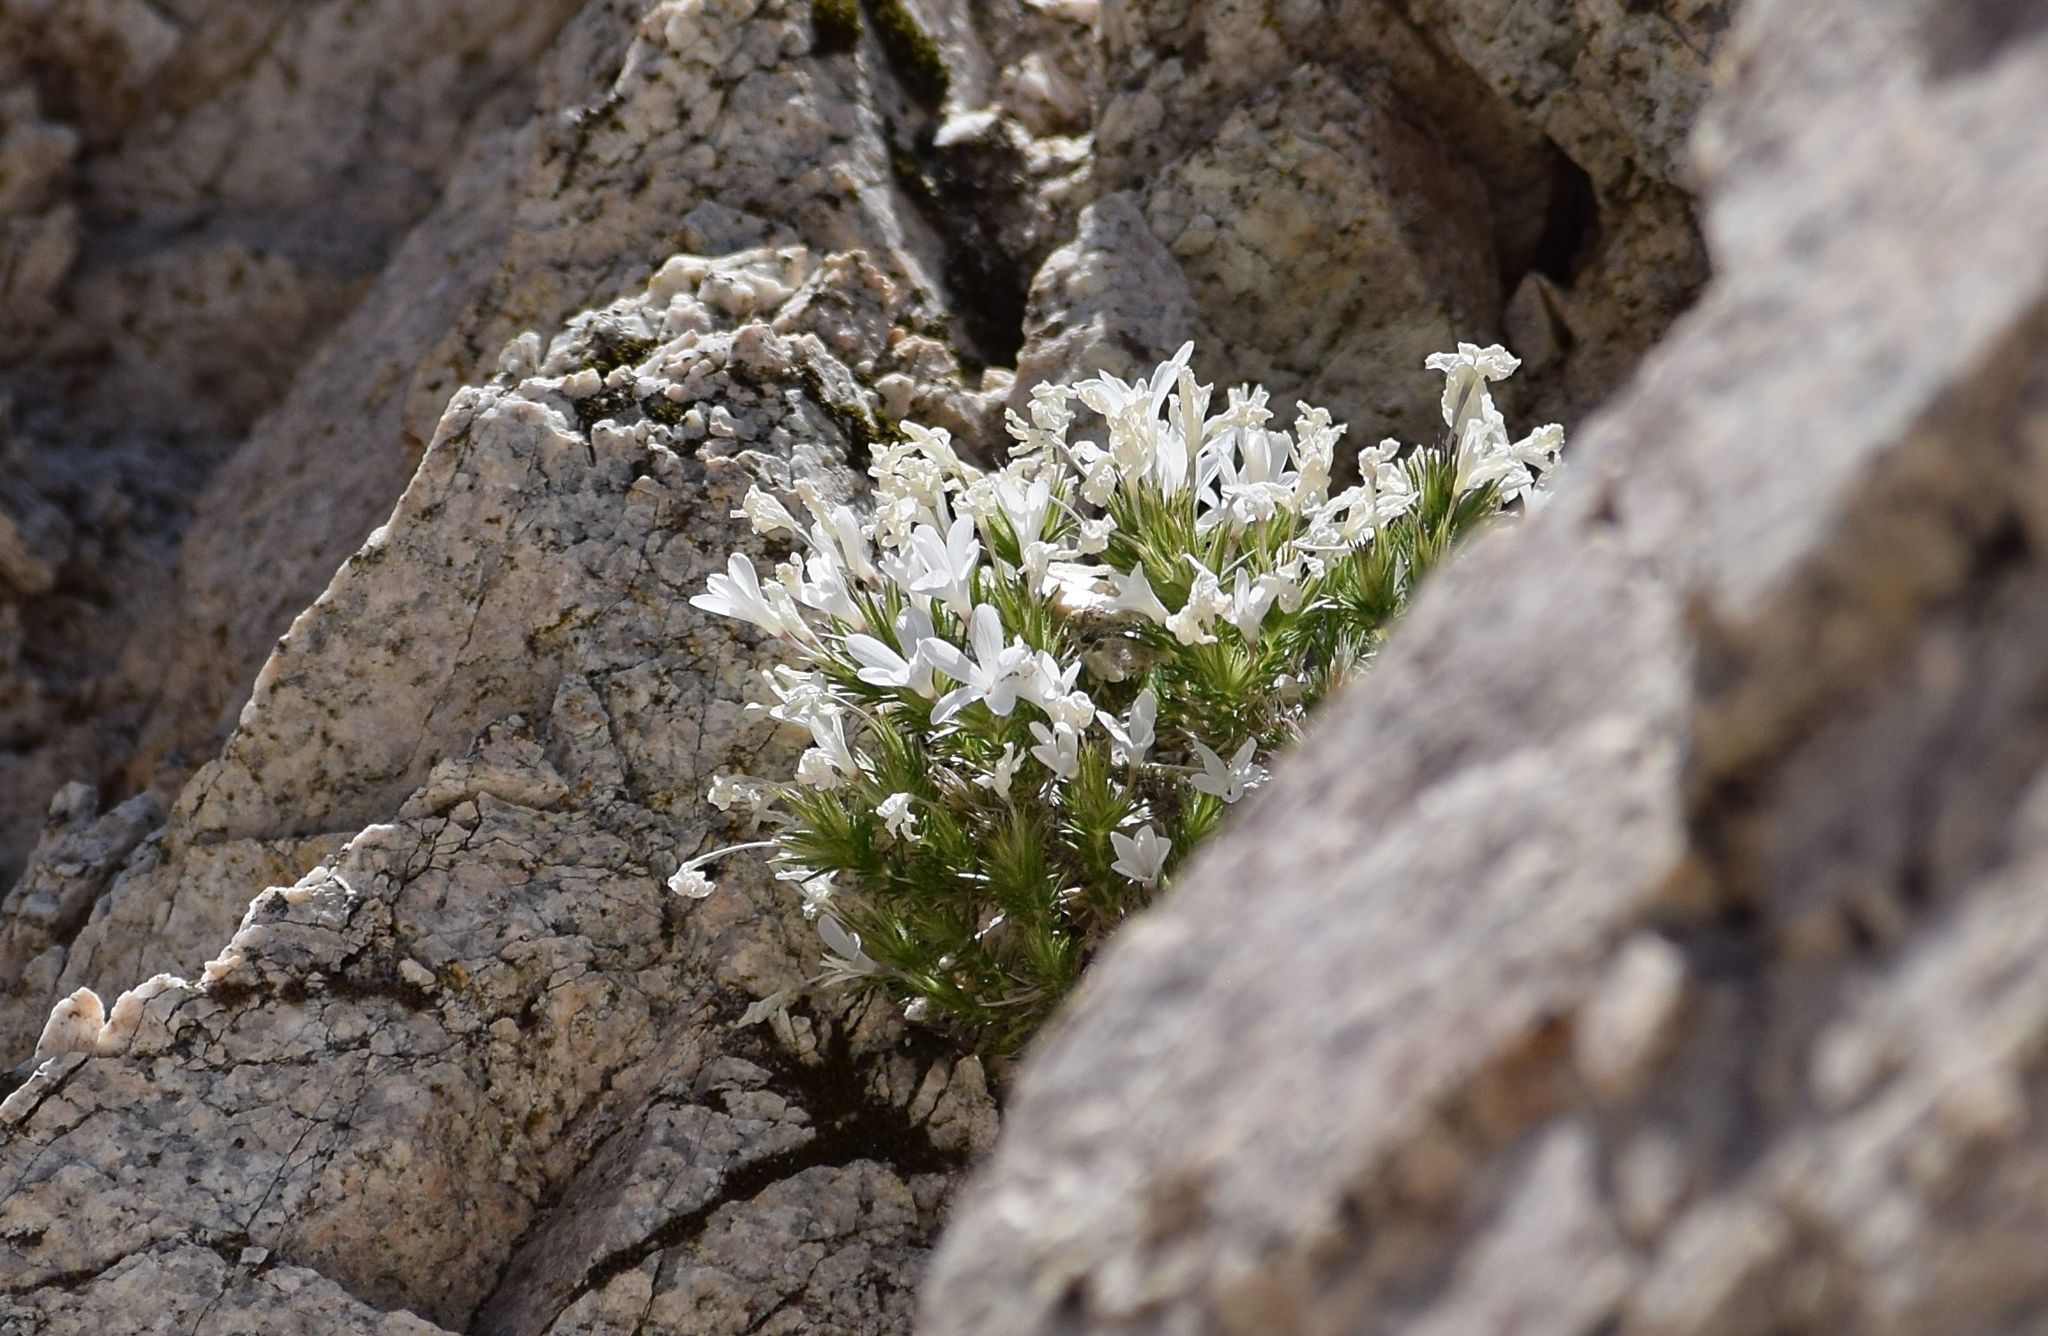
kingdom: Plantae
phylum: Tracheophyta
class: Magnoliopsida
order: Ericales
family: Polemoniaceae
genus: Linanthus
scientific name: Linanthus pungens
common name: Granite prickly phlox
